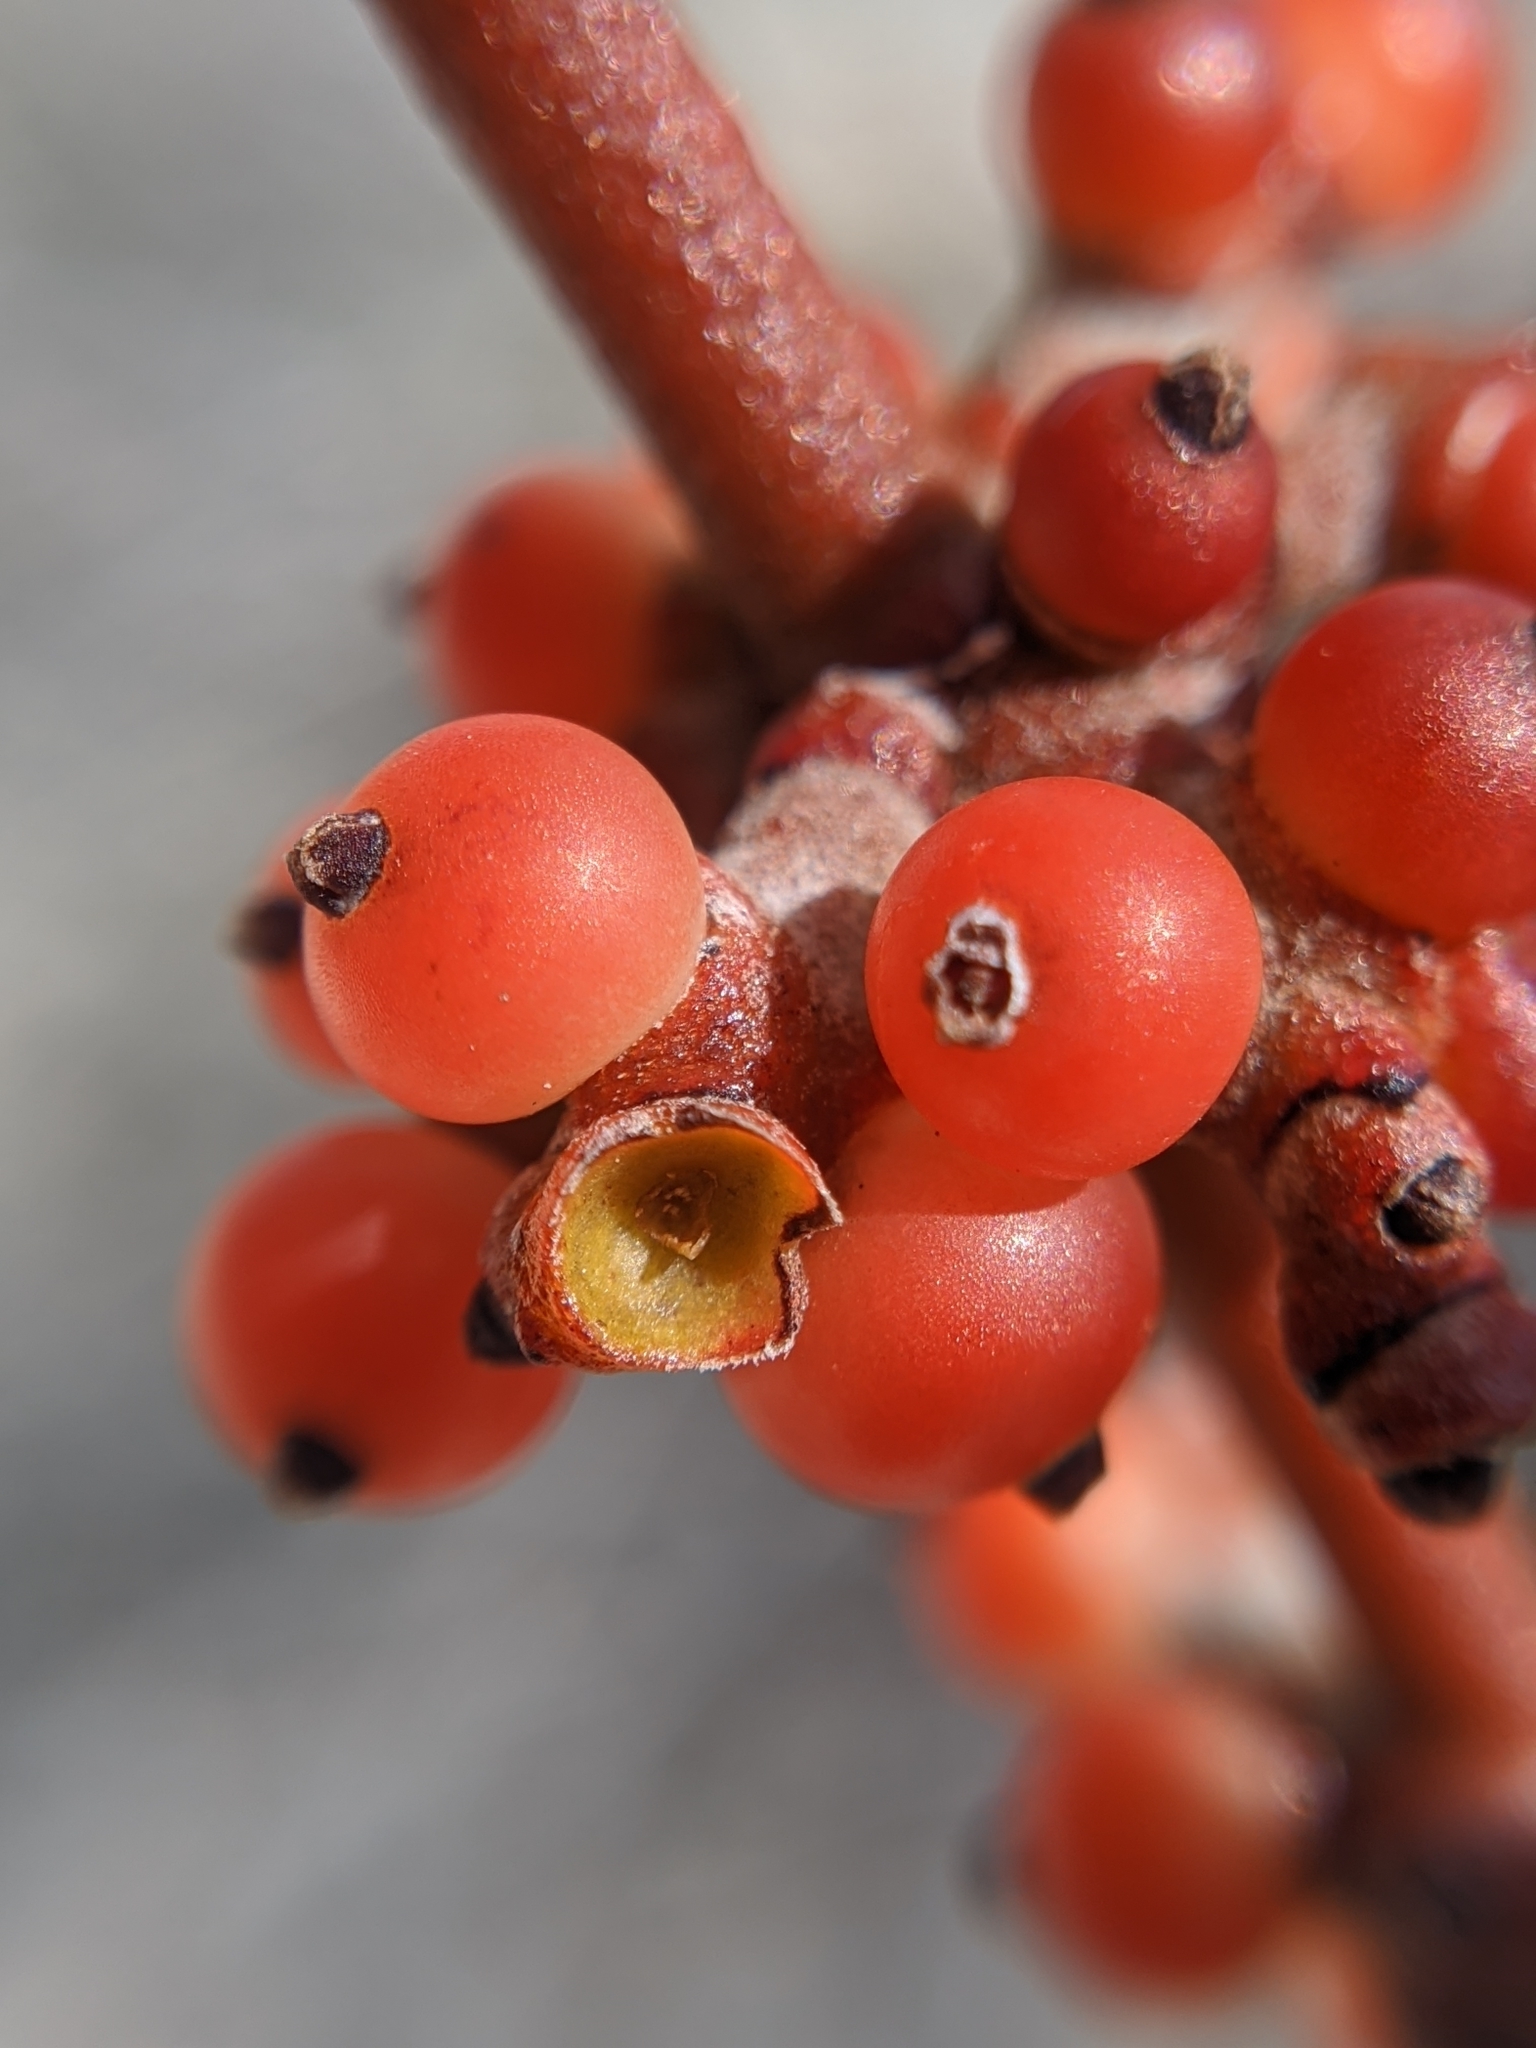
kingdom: Plantae
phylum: Tracheophyta
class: Magnoliopsida
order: Santalales
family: Viscaceae
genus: Phoradendron
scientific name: Phoradendron californicum
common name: Acacia mistletoe
